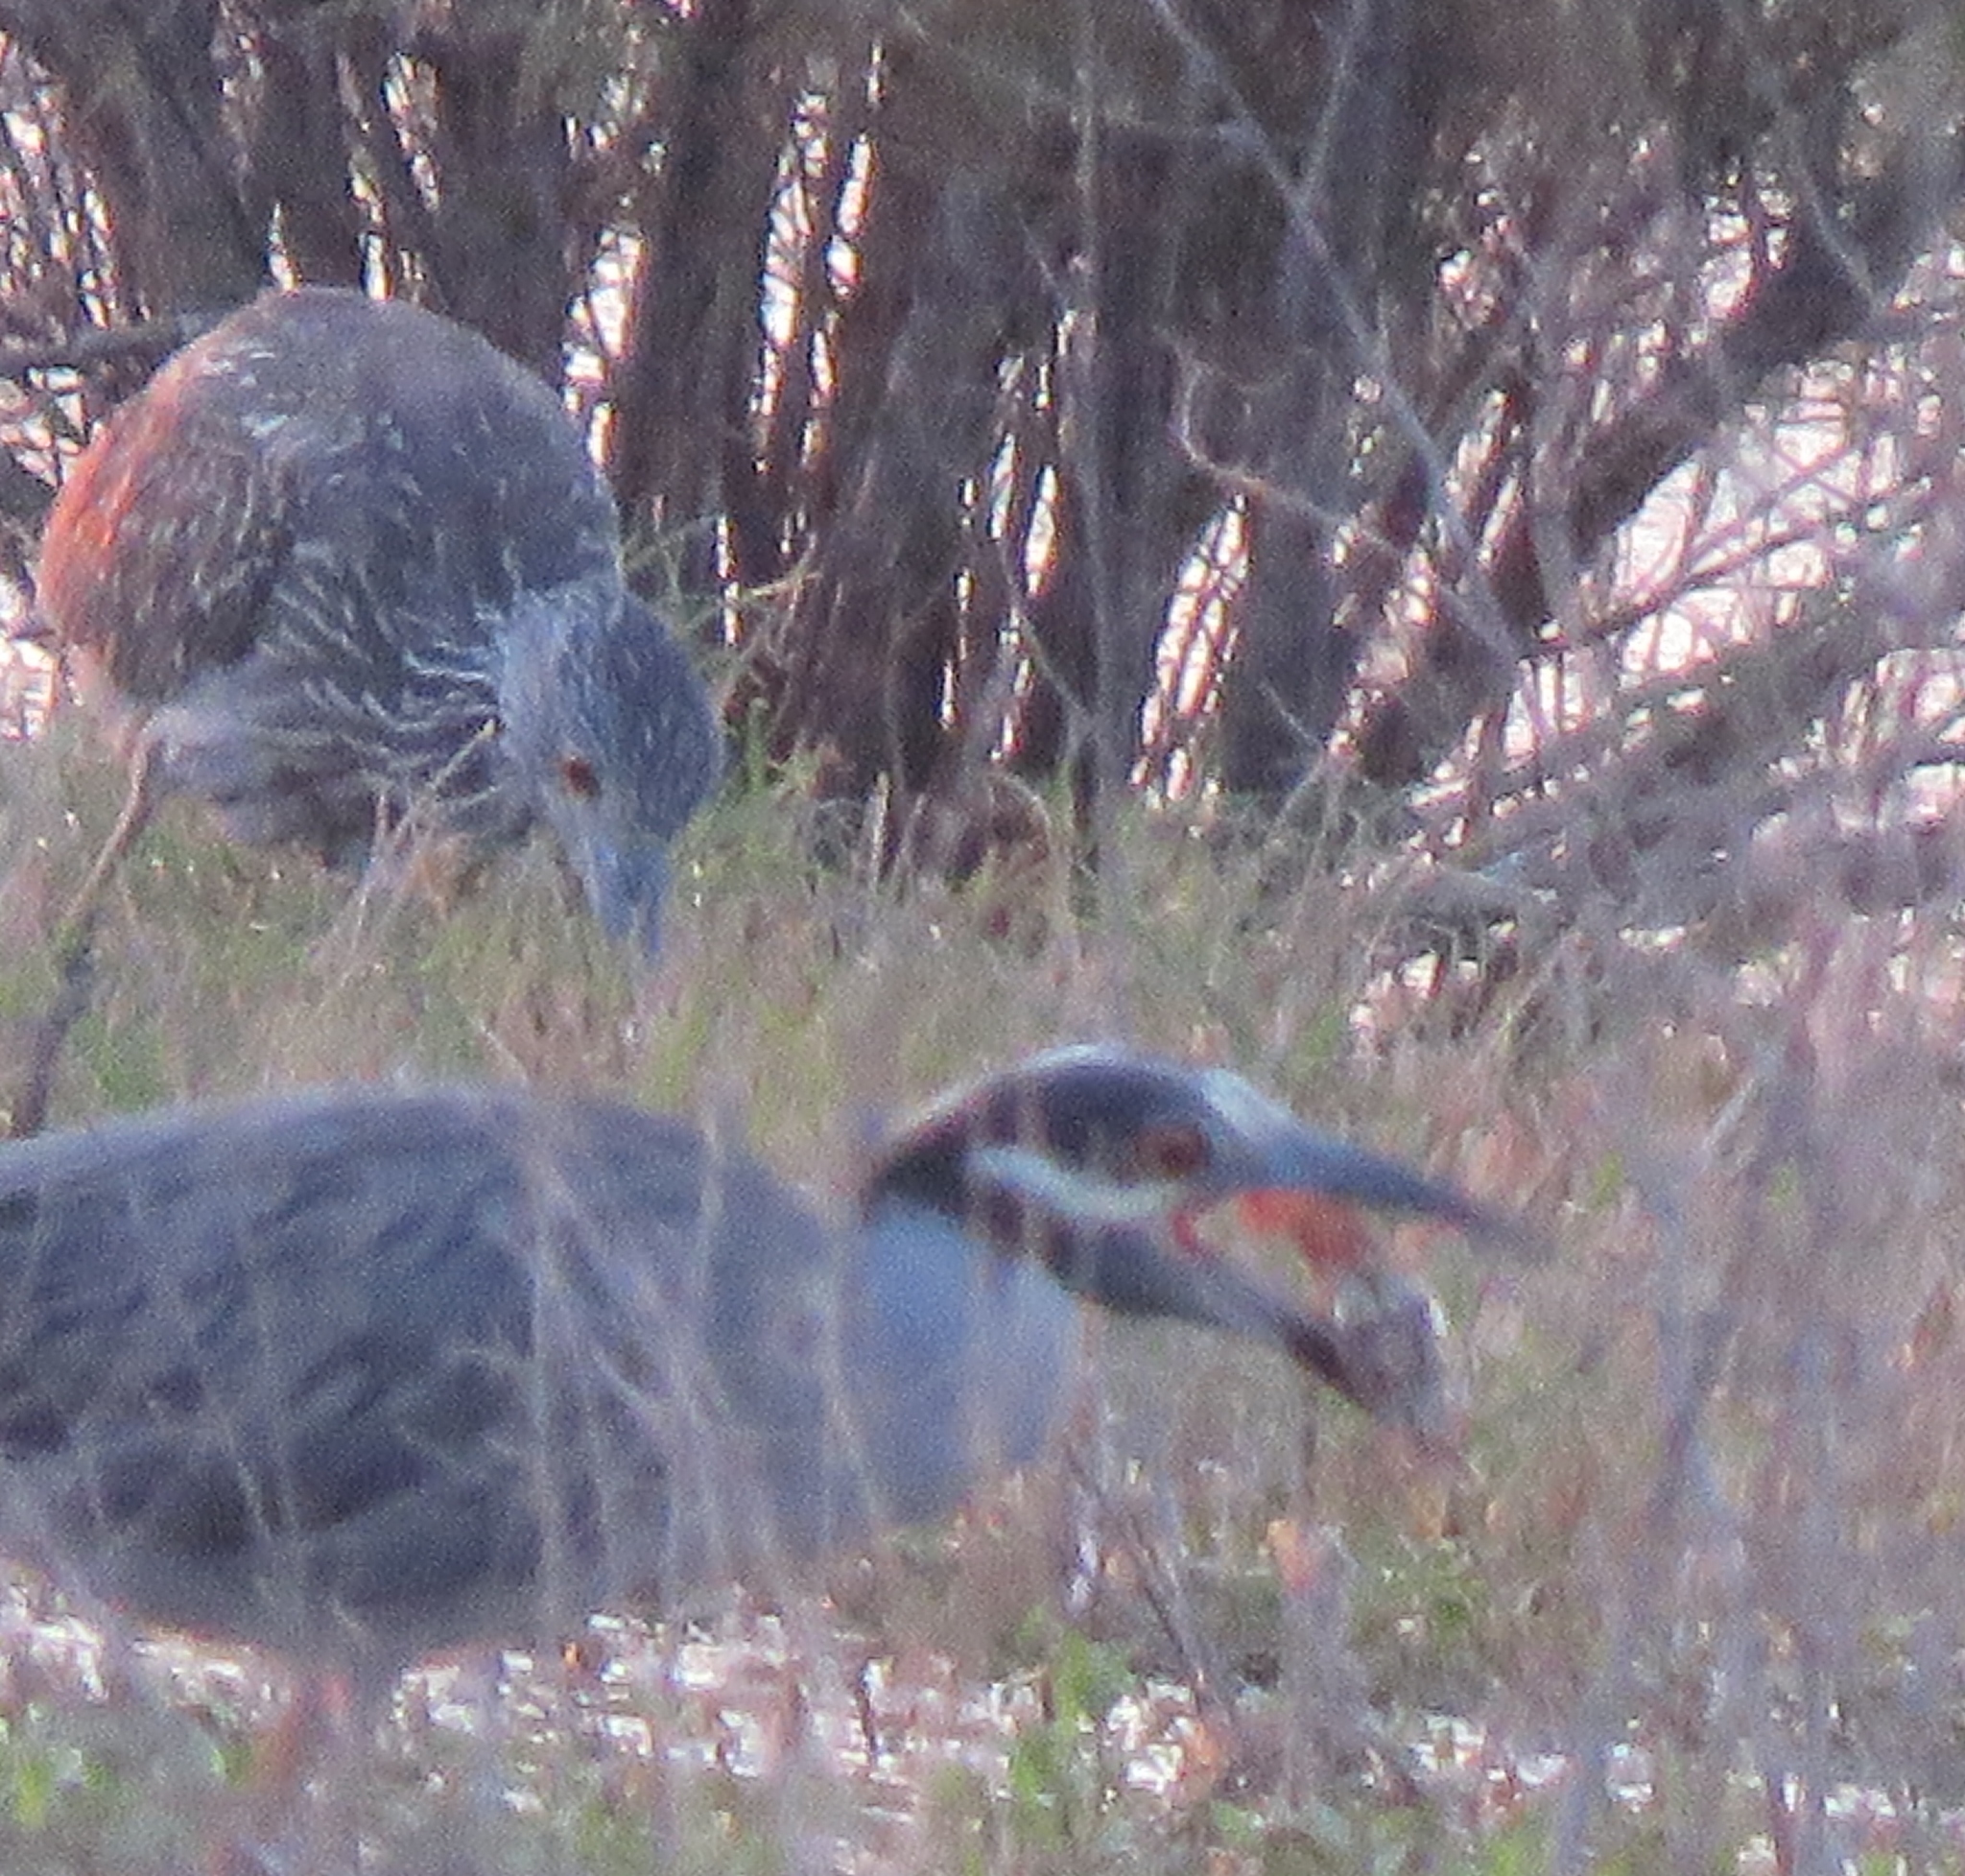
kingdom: Animalia
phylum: Chordata
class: Aves
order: Pelecaniformes
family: Ardeidae
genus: Nyctanassa
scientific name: Nyctanassa violacea
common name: Yellow-crowned night heron
